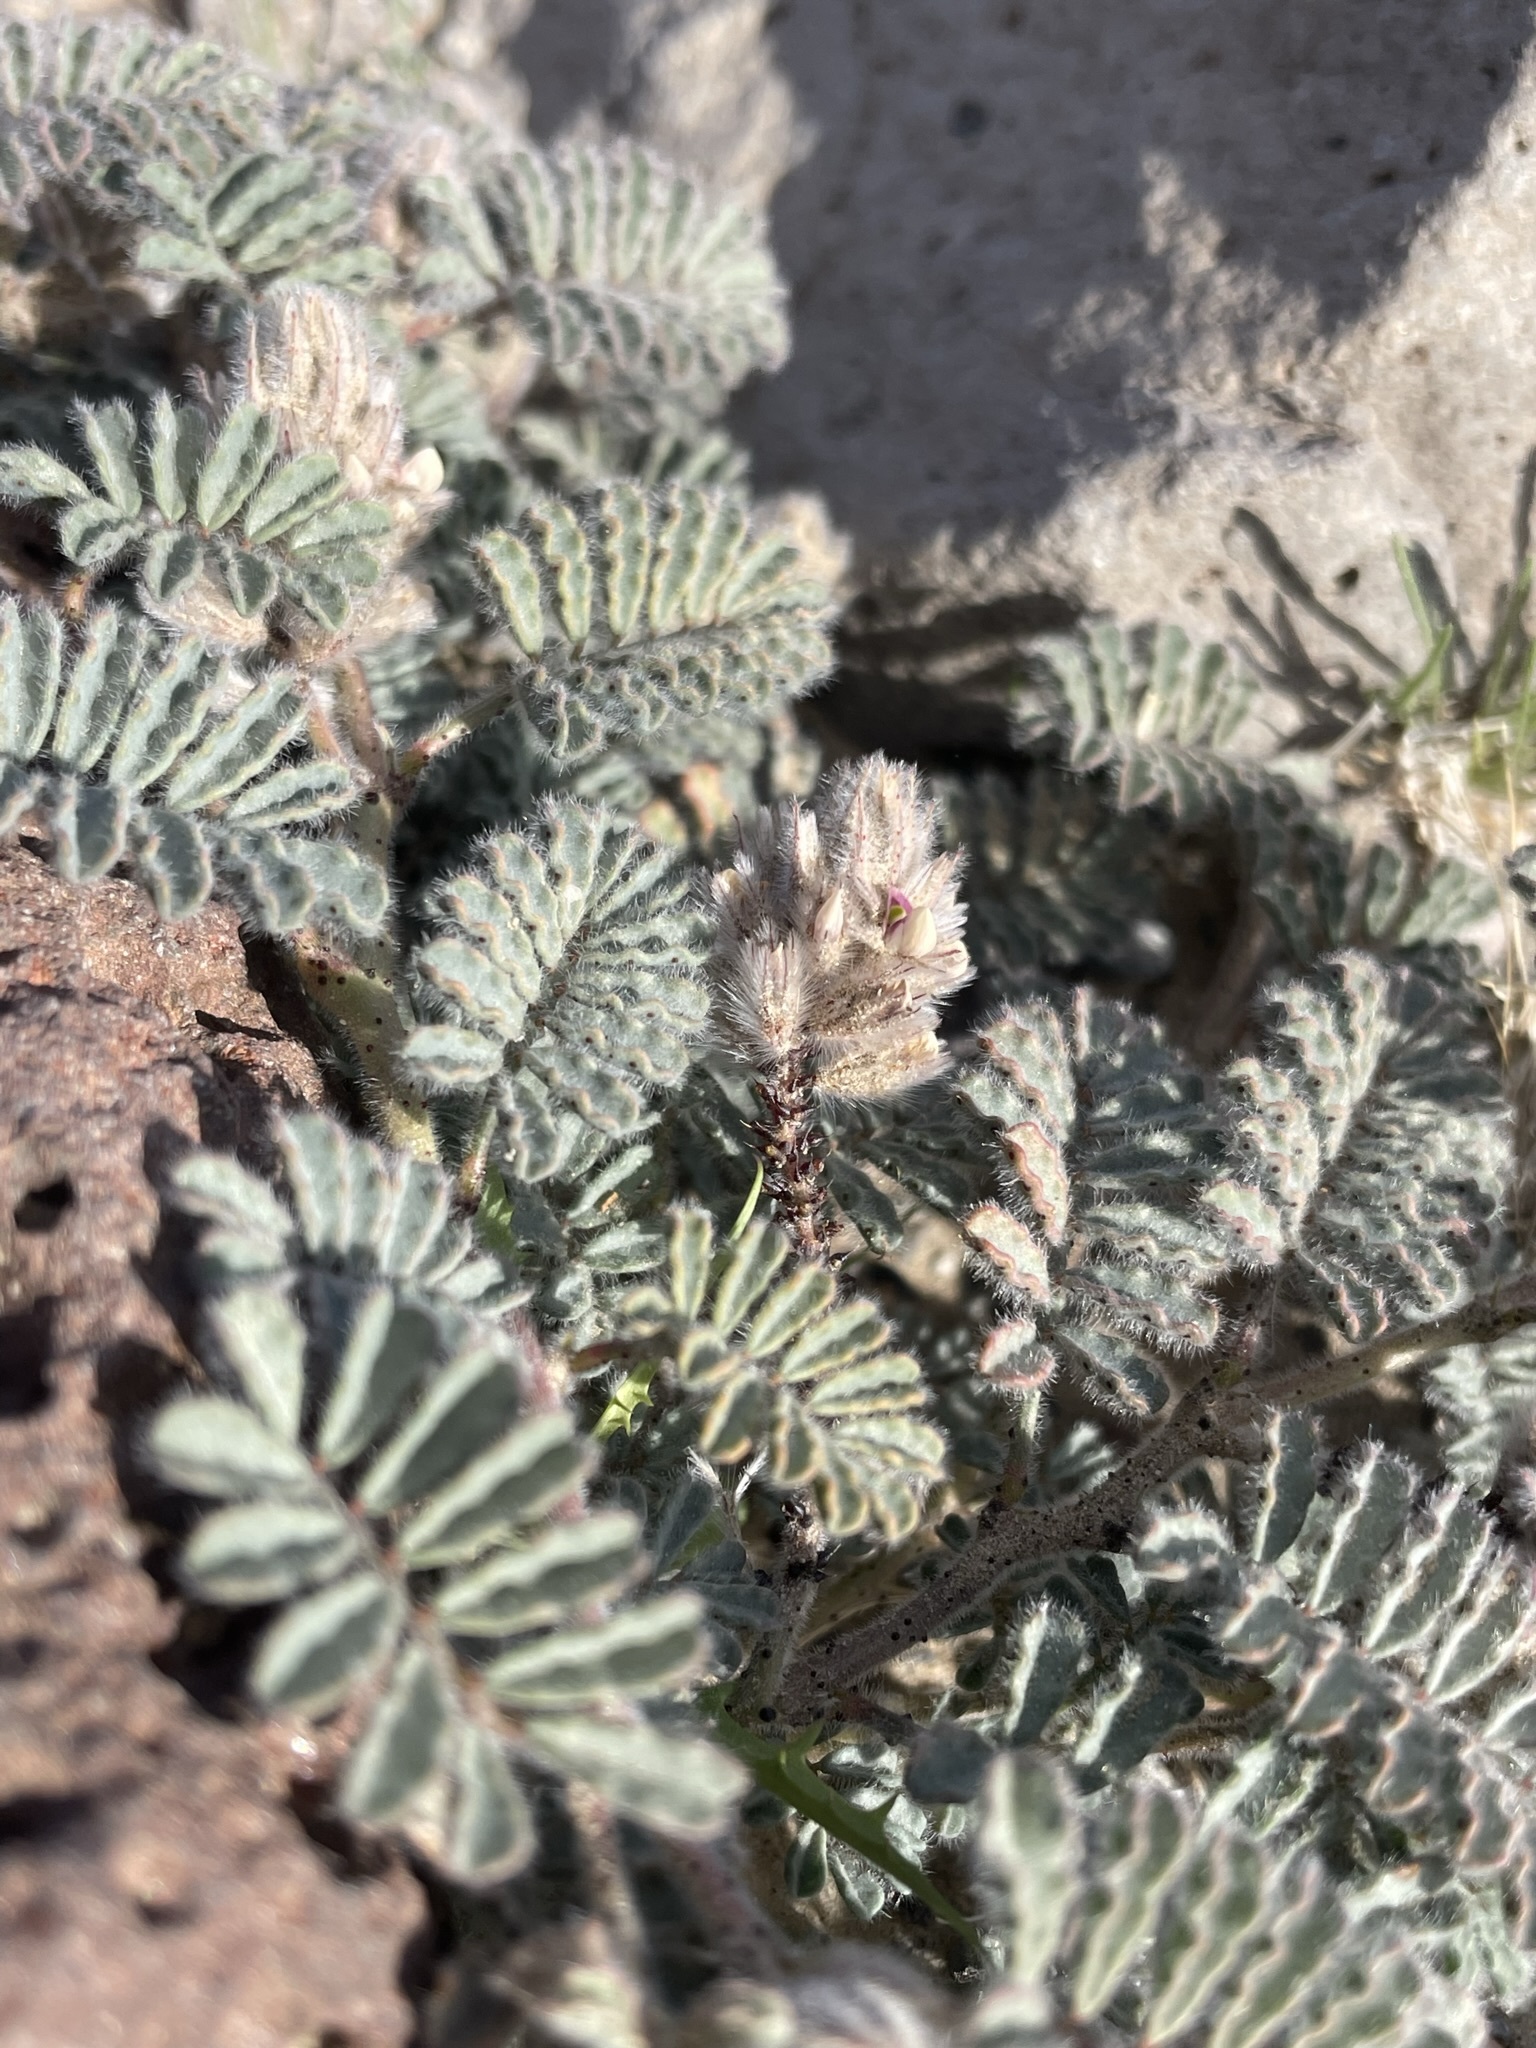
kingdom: Plantae
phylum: Tracheophyta
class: Magnoliopsida
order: Fabales
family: Fabaceae
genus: Dalea
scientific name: Dalea mollissima
